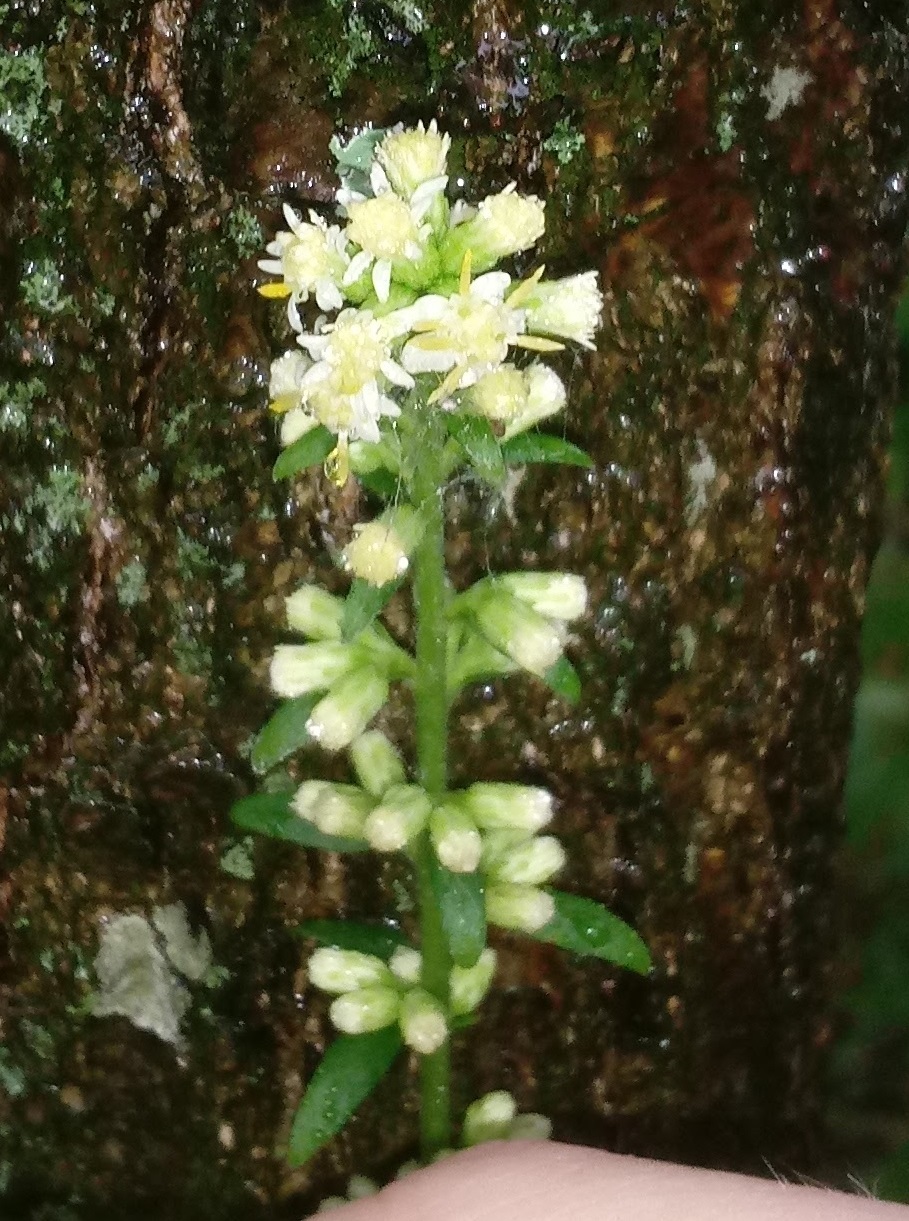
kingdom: Plantae
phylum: Tracheophyta
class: Magnoliopsida
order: Asterales
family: Asteraceae
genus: Solidago
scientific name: Solidago bicolor
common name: Silverrod
